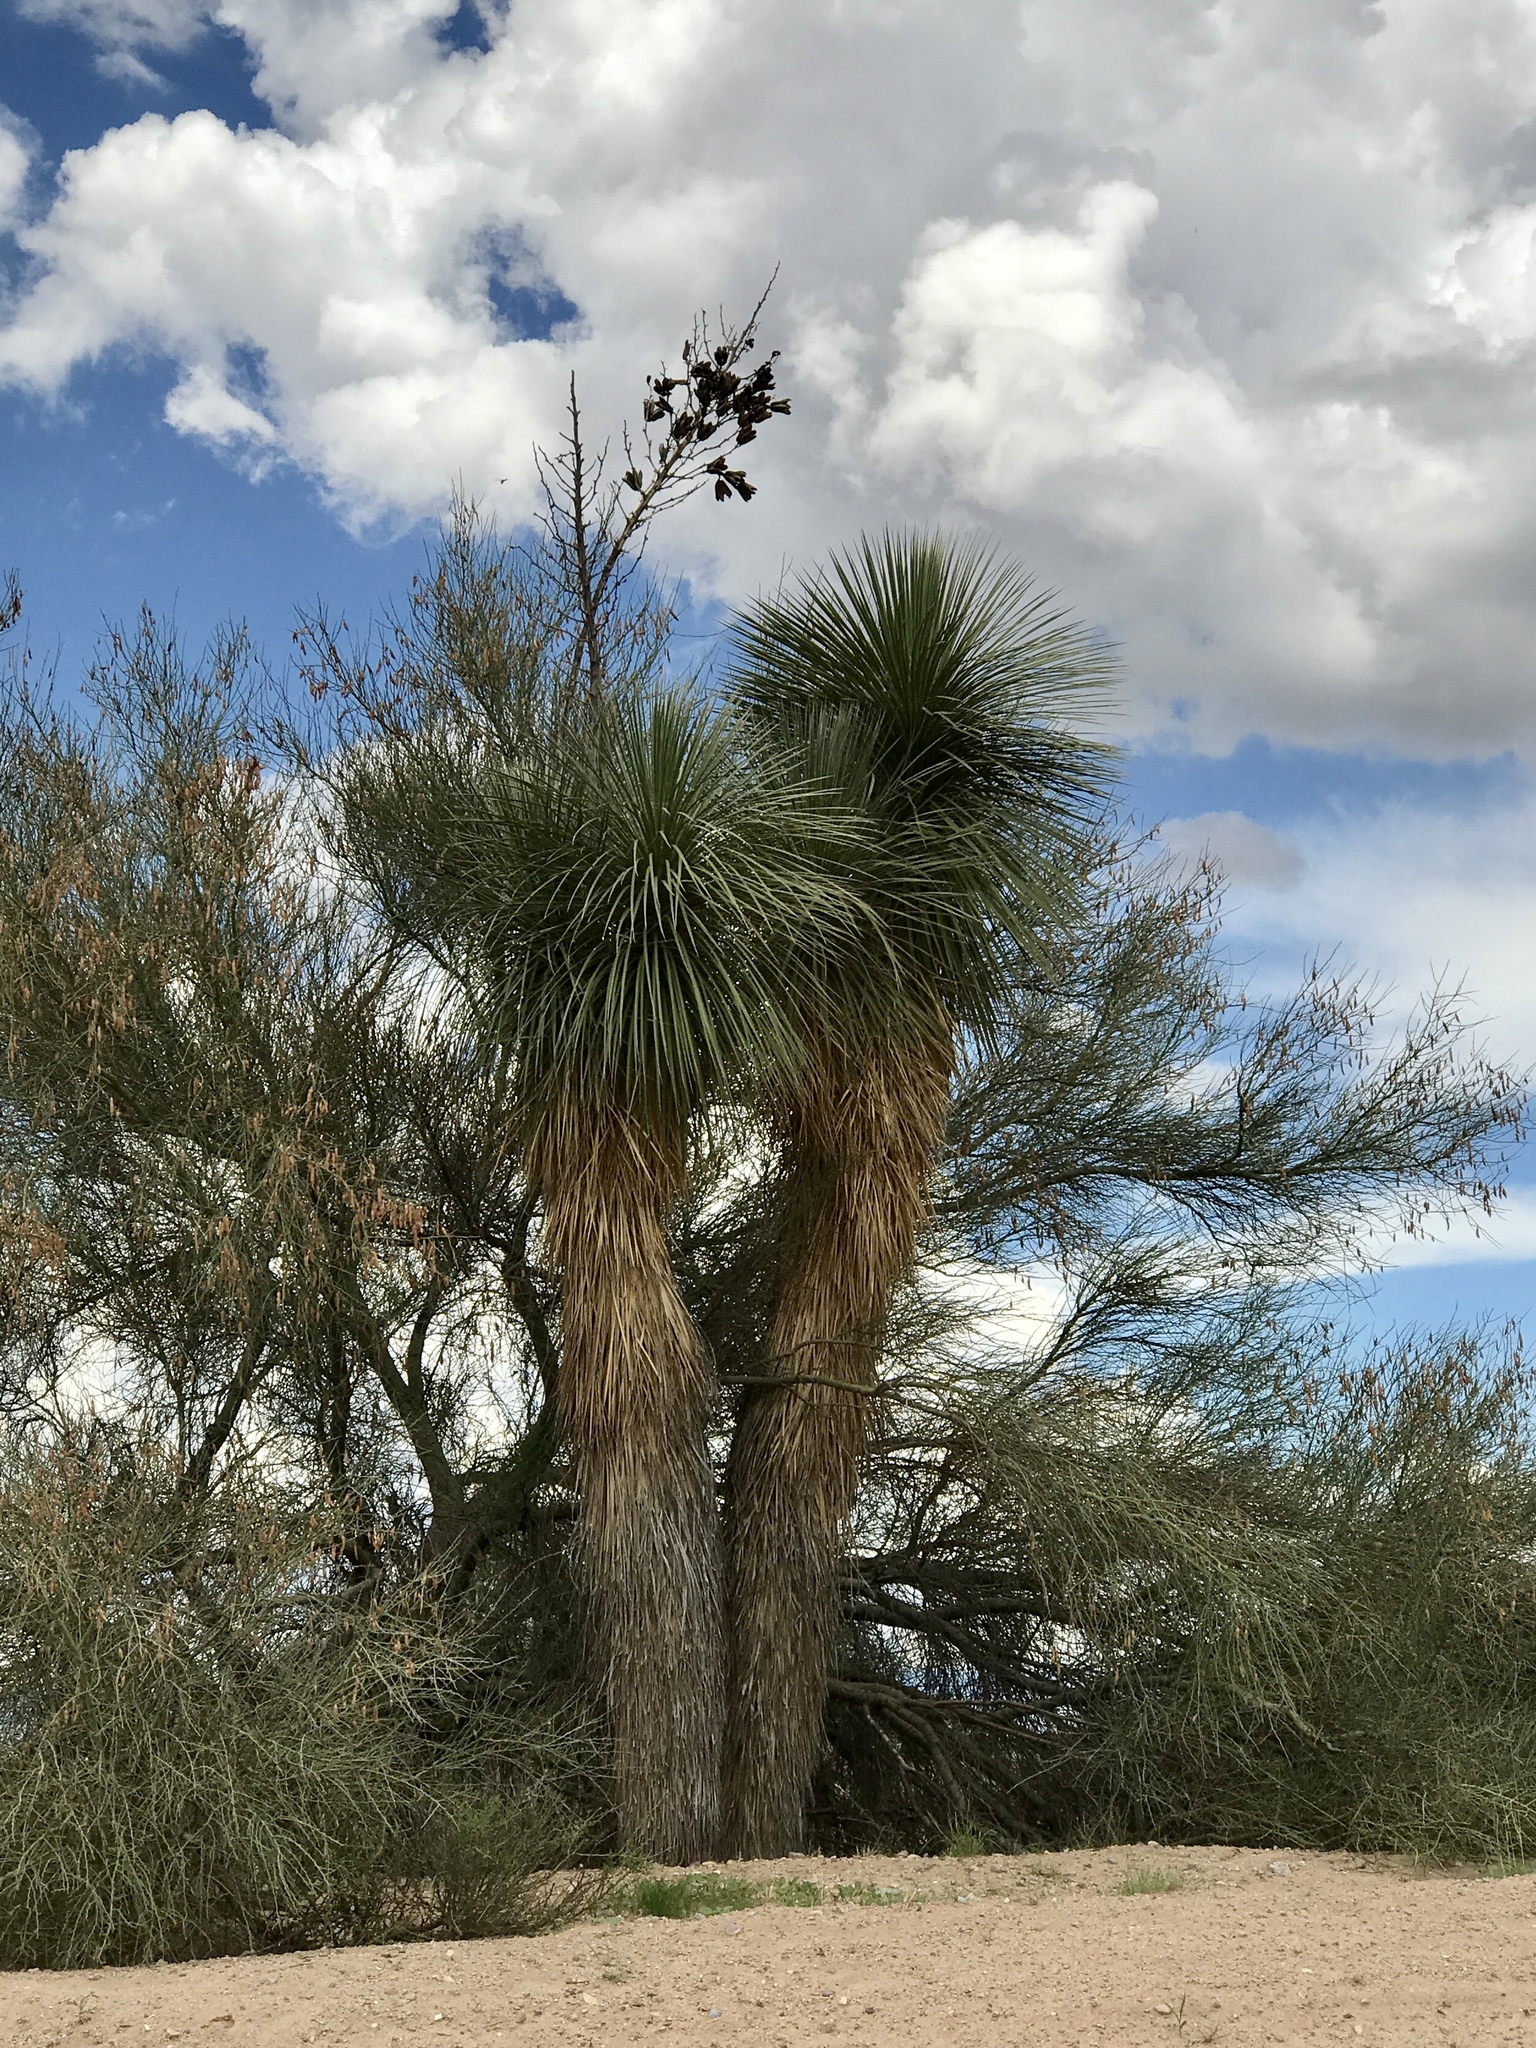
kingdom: Plantae
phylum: Tracheophyta
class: Liliopsida
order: Asparagales
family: Asparagaceae
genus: Yucca
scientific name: Yucca elata
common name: Palmella
